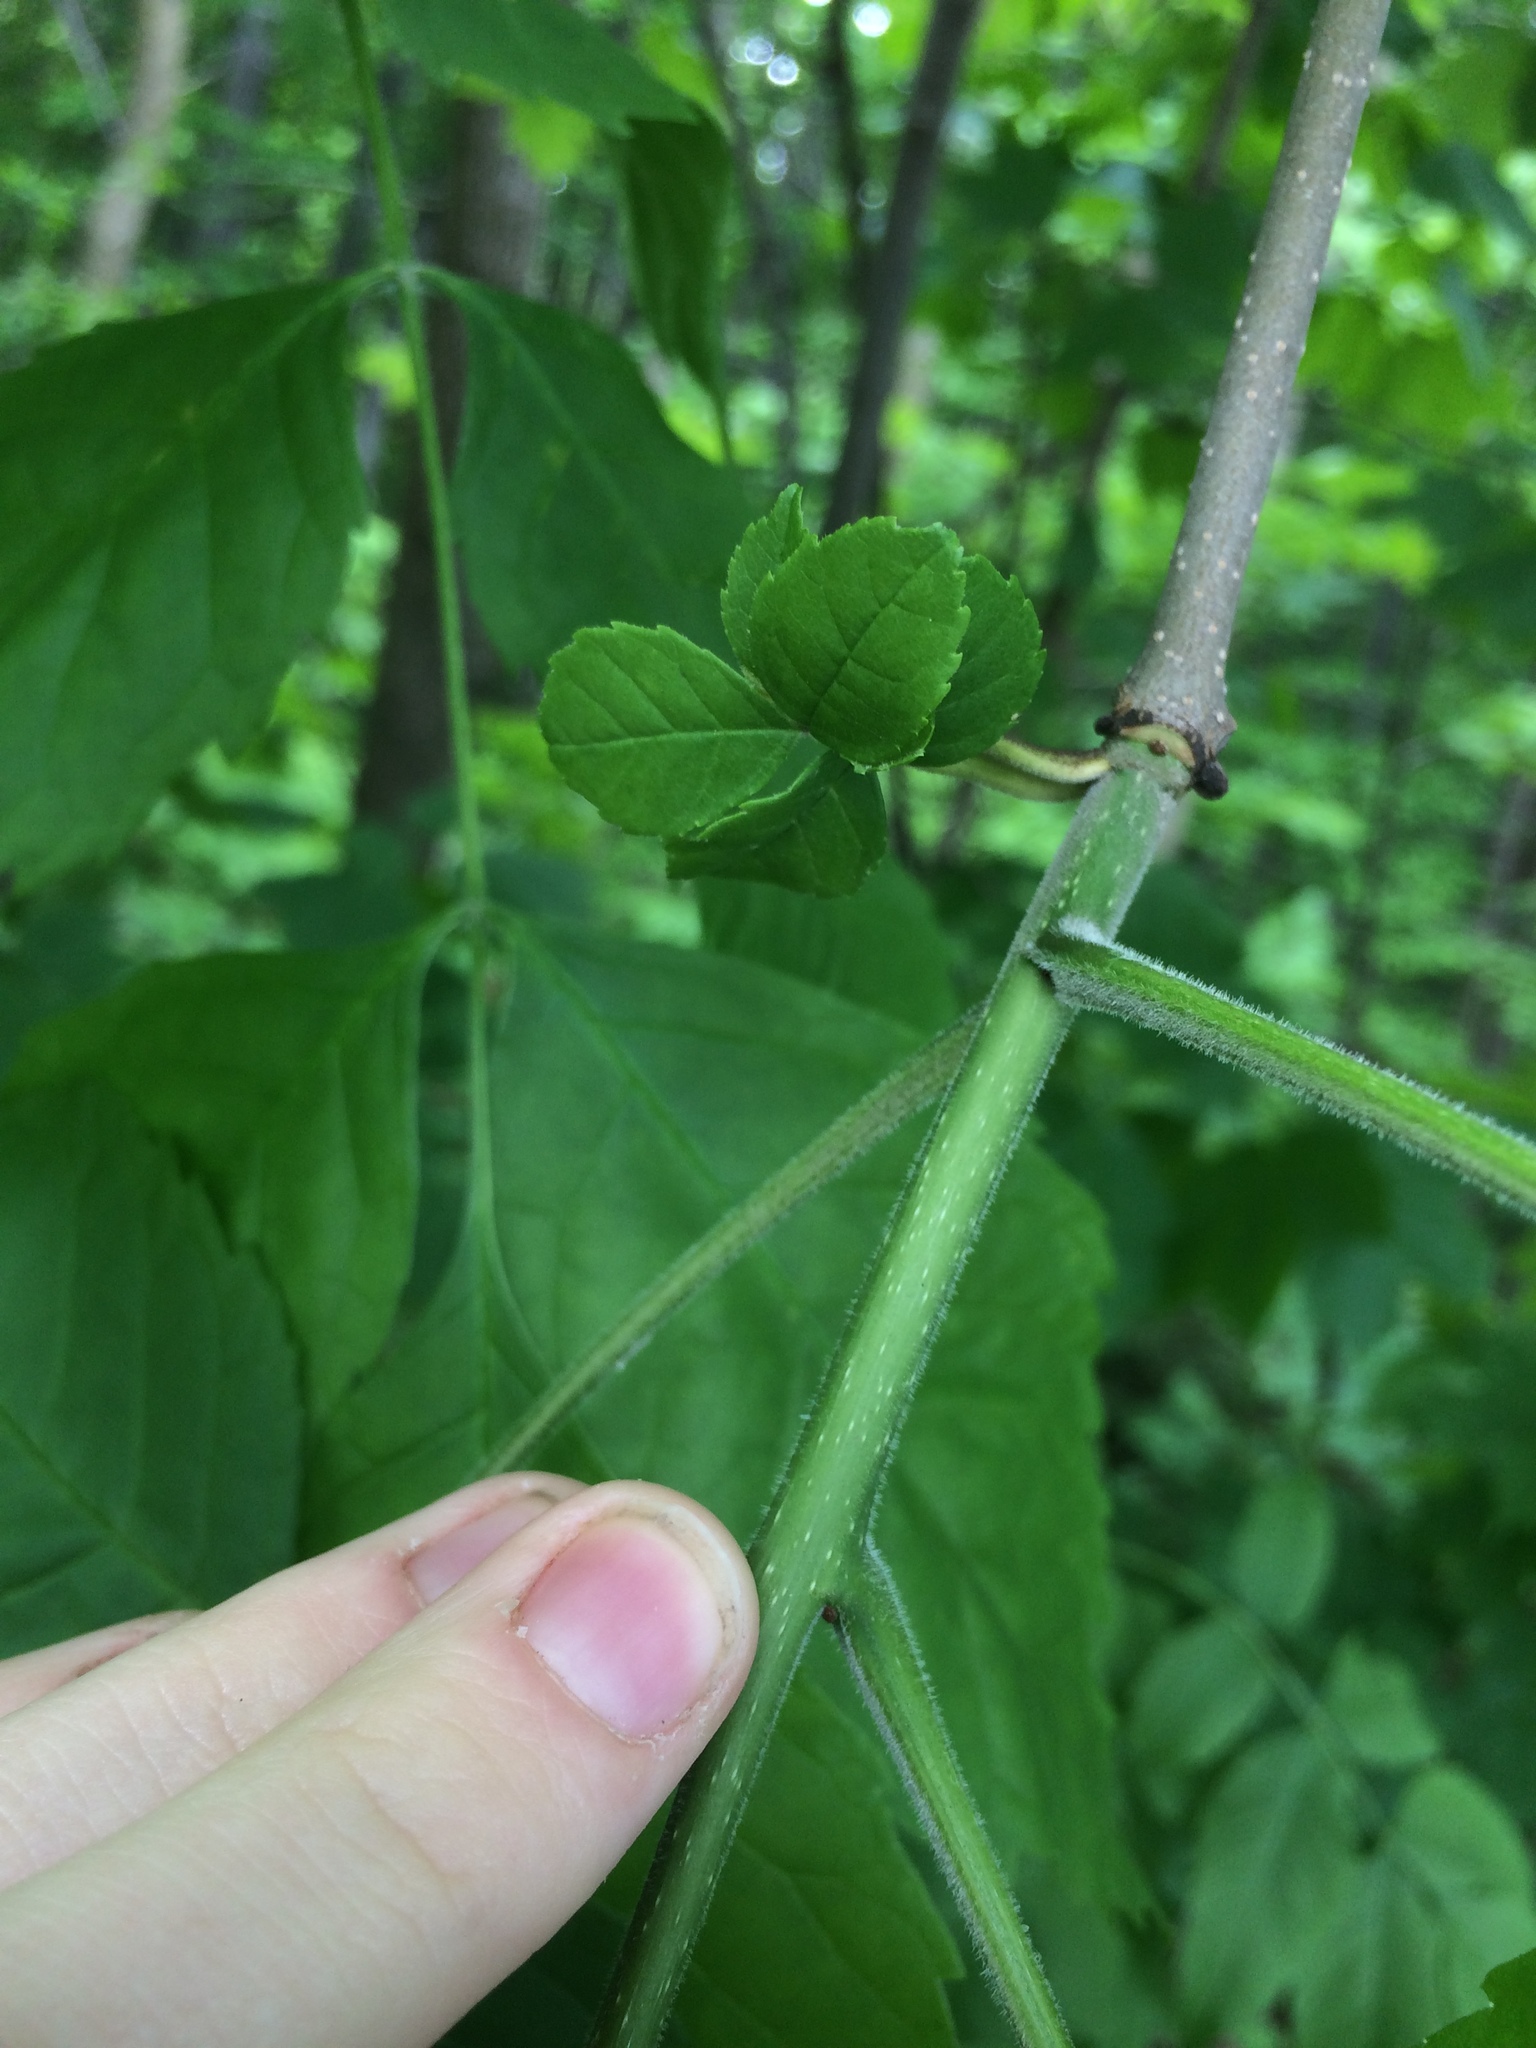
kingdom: Plantae
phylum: Tracheophyta
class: Magnoliopsida
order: Lamiales
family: Oleaceae
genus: Fraxinus
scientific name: Fraxinus pennsylvanica
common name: Green ash
